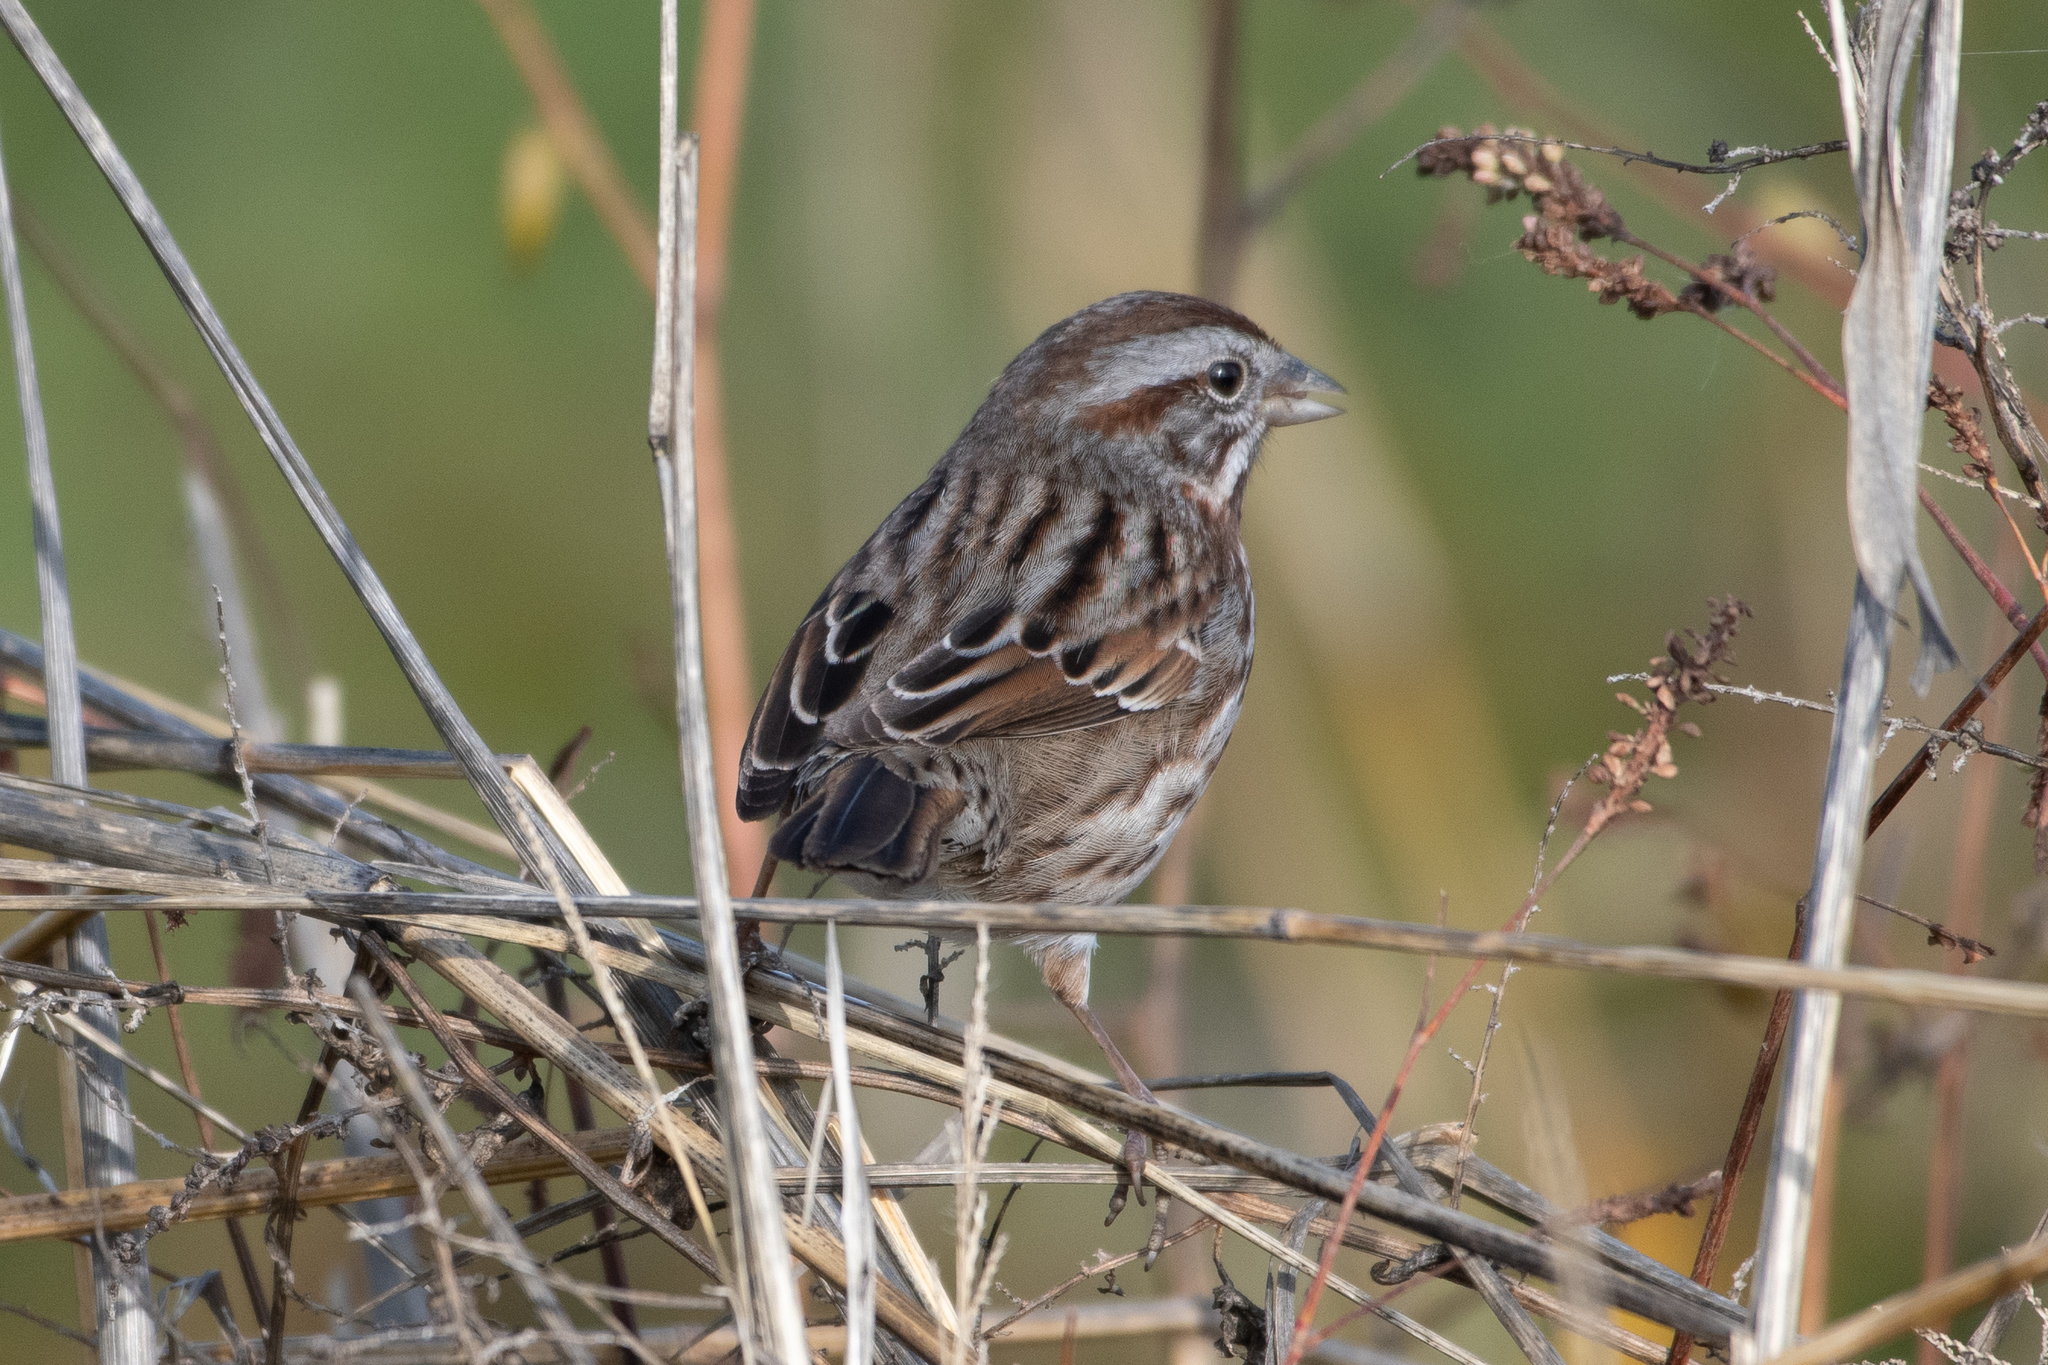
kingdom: Animalia
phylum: Chordata
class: Aves
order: Passeriformes
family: Passerellidae
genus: Melospiza
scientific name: Melospiza melodia
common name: Song sparrow
